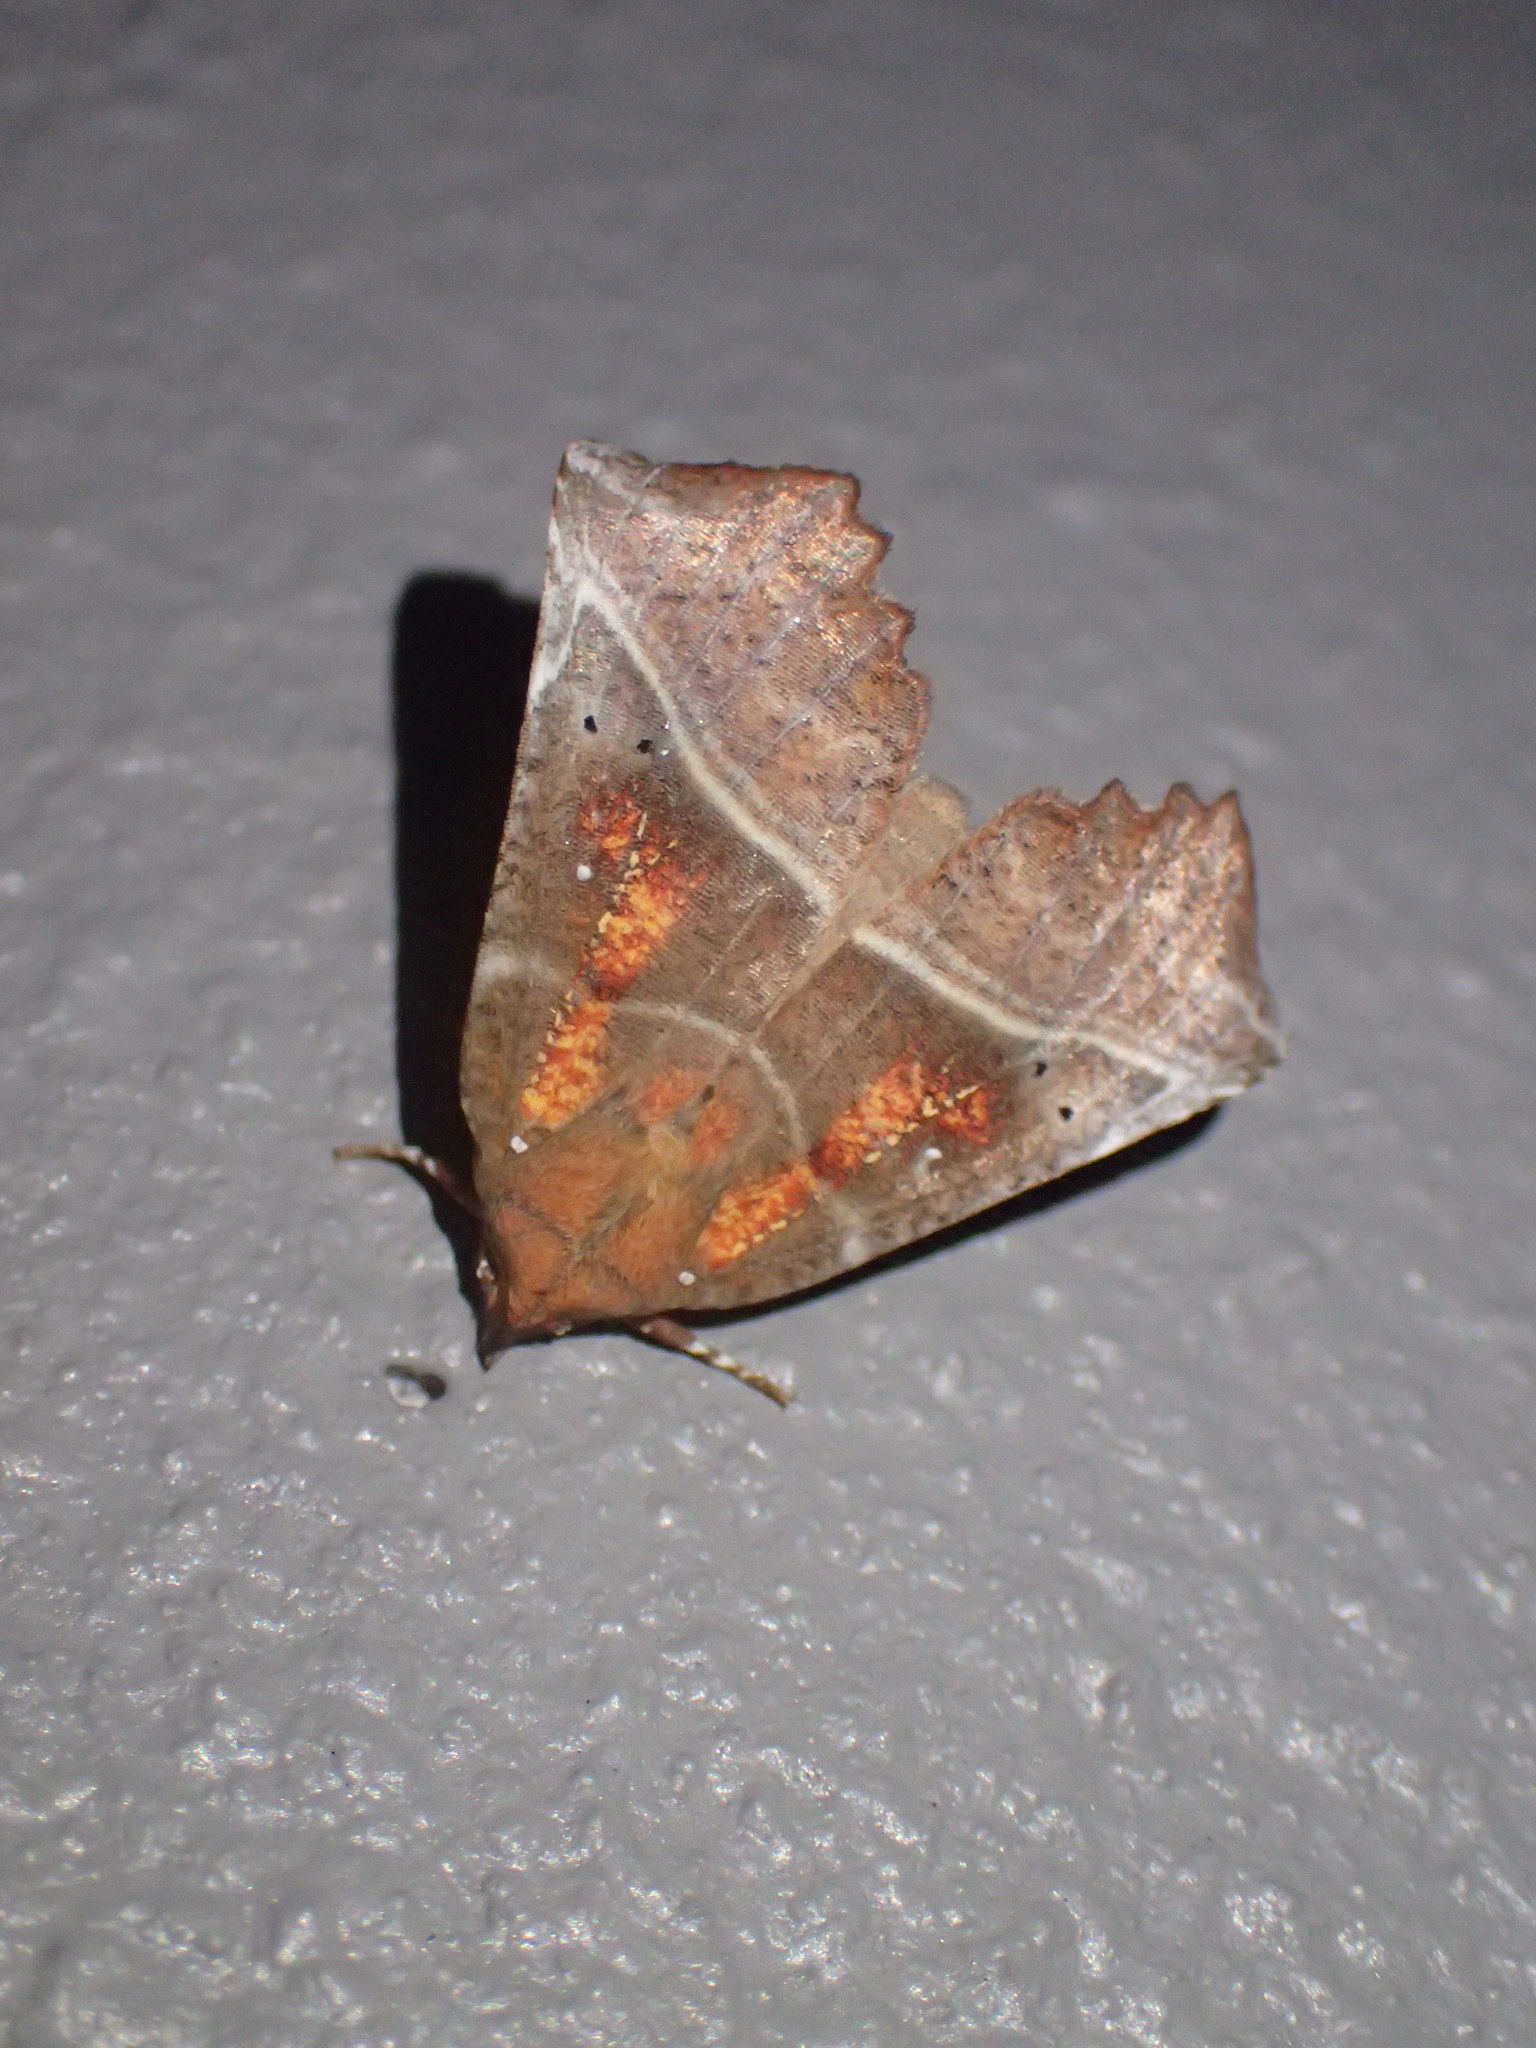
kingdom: Animalia
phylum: Arthropoda
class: Insecta
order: Lepidoptera
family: Erebidae
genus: Scoliopteryx
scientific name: Scoliopteryx libatrix
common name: Herald
